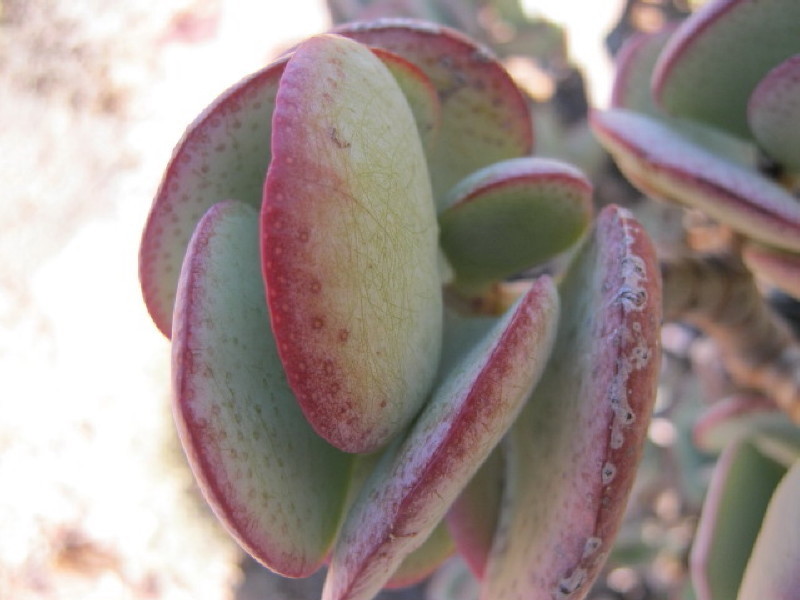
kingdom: Plantae
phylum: Tracheophyta
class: Magnoliopsida
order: Saxifragales
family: Crassulaceae
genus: Crassula
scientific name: Crassula arborescens
